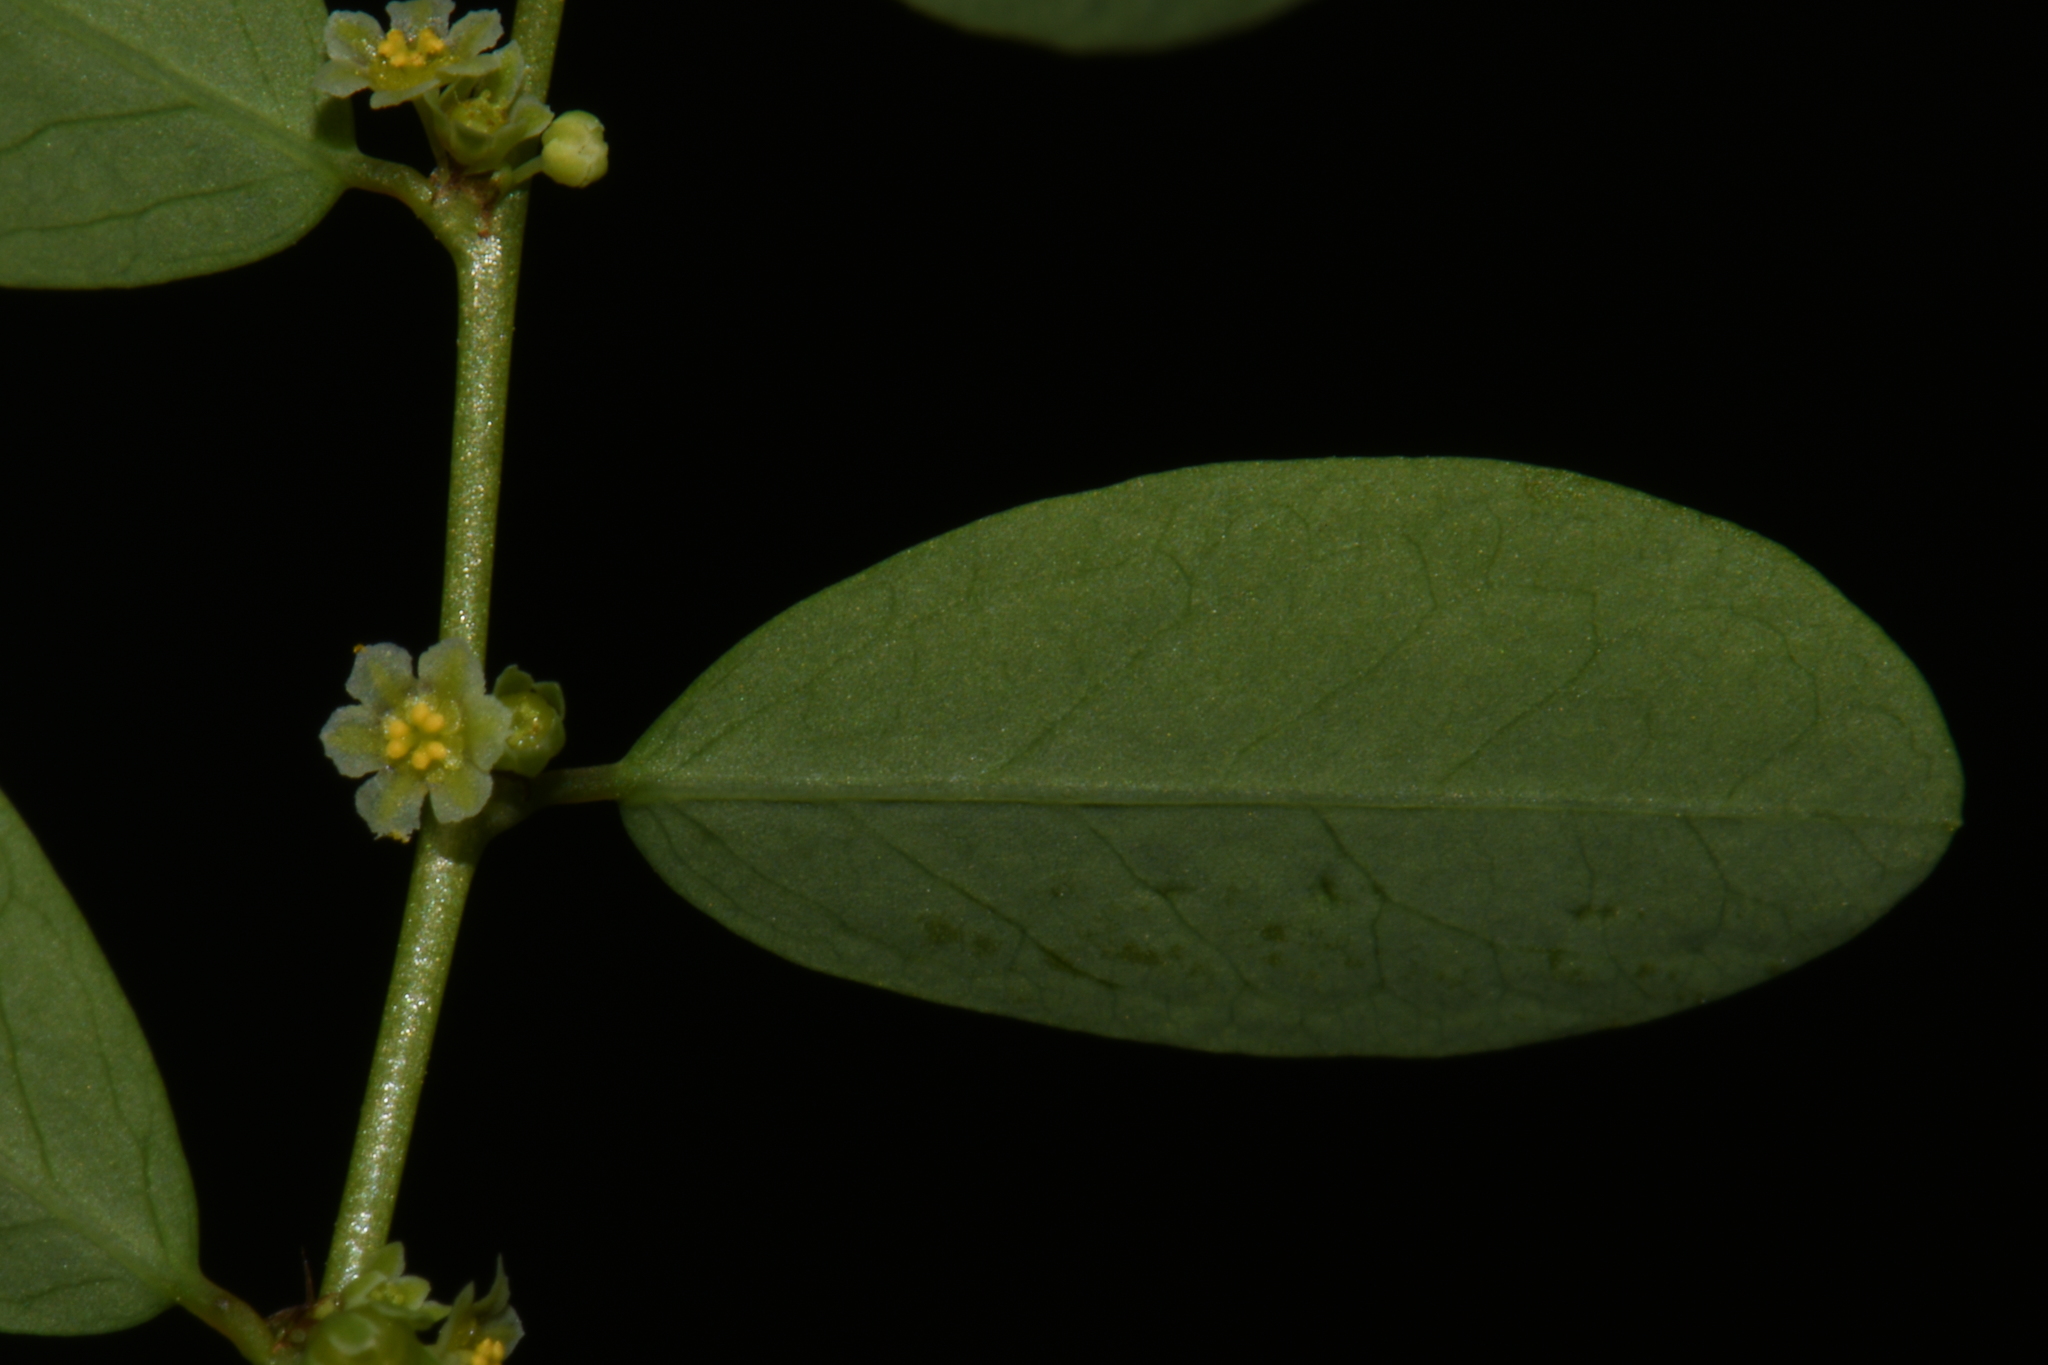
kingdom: Plantae
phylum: Tracheophyta
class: Magnoliopsida
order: Malpighiales
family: Phyllanthaceae
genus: Phyllanthus
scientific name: Phyllanthus caroliniensis
